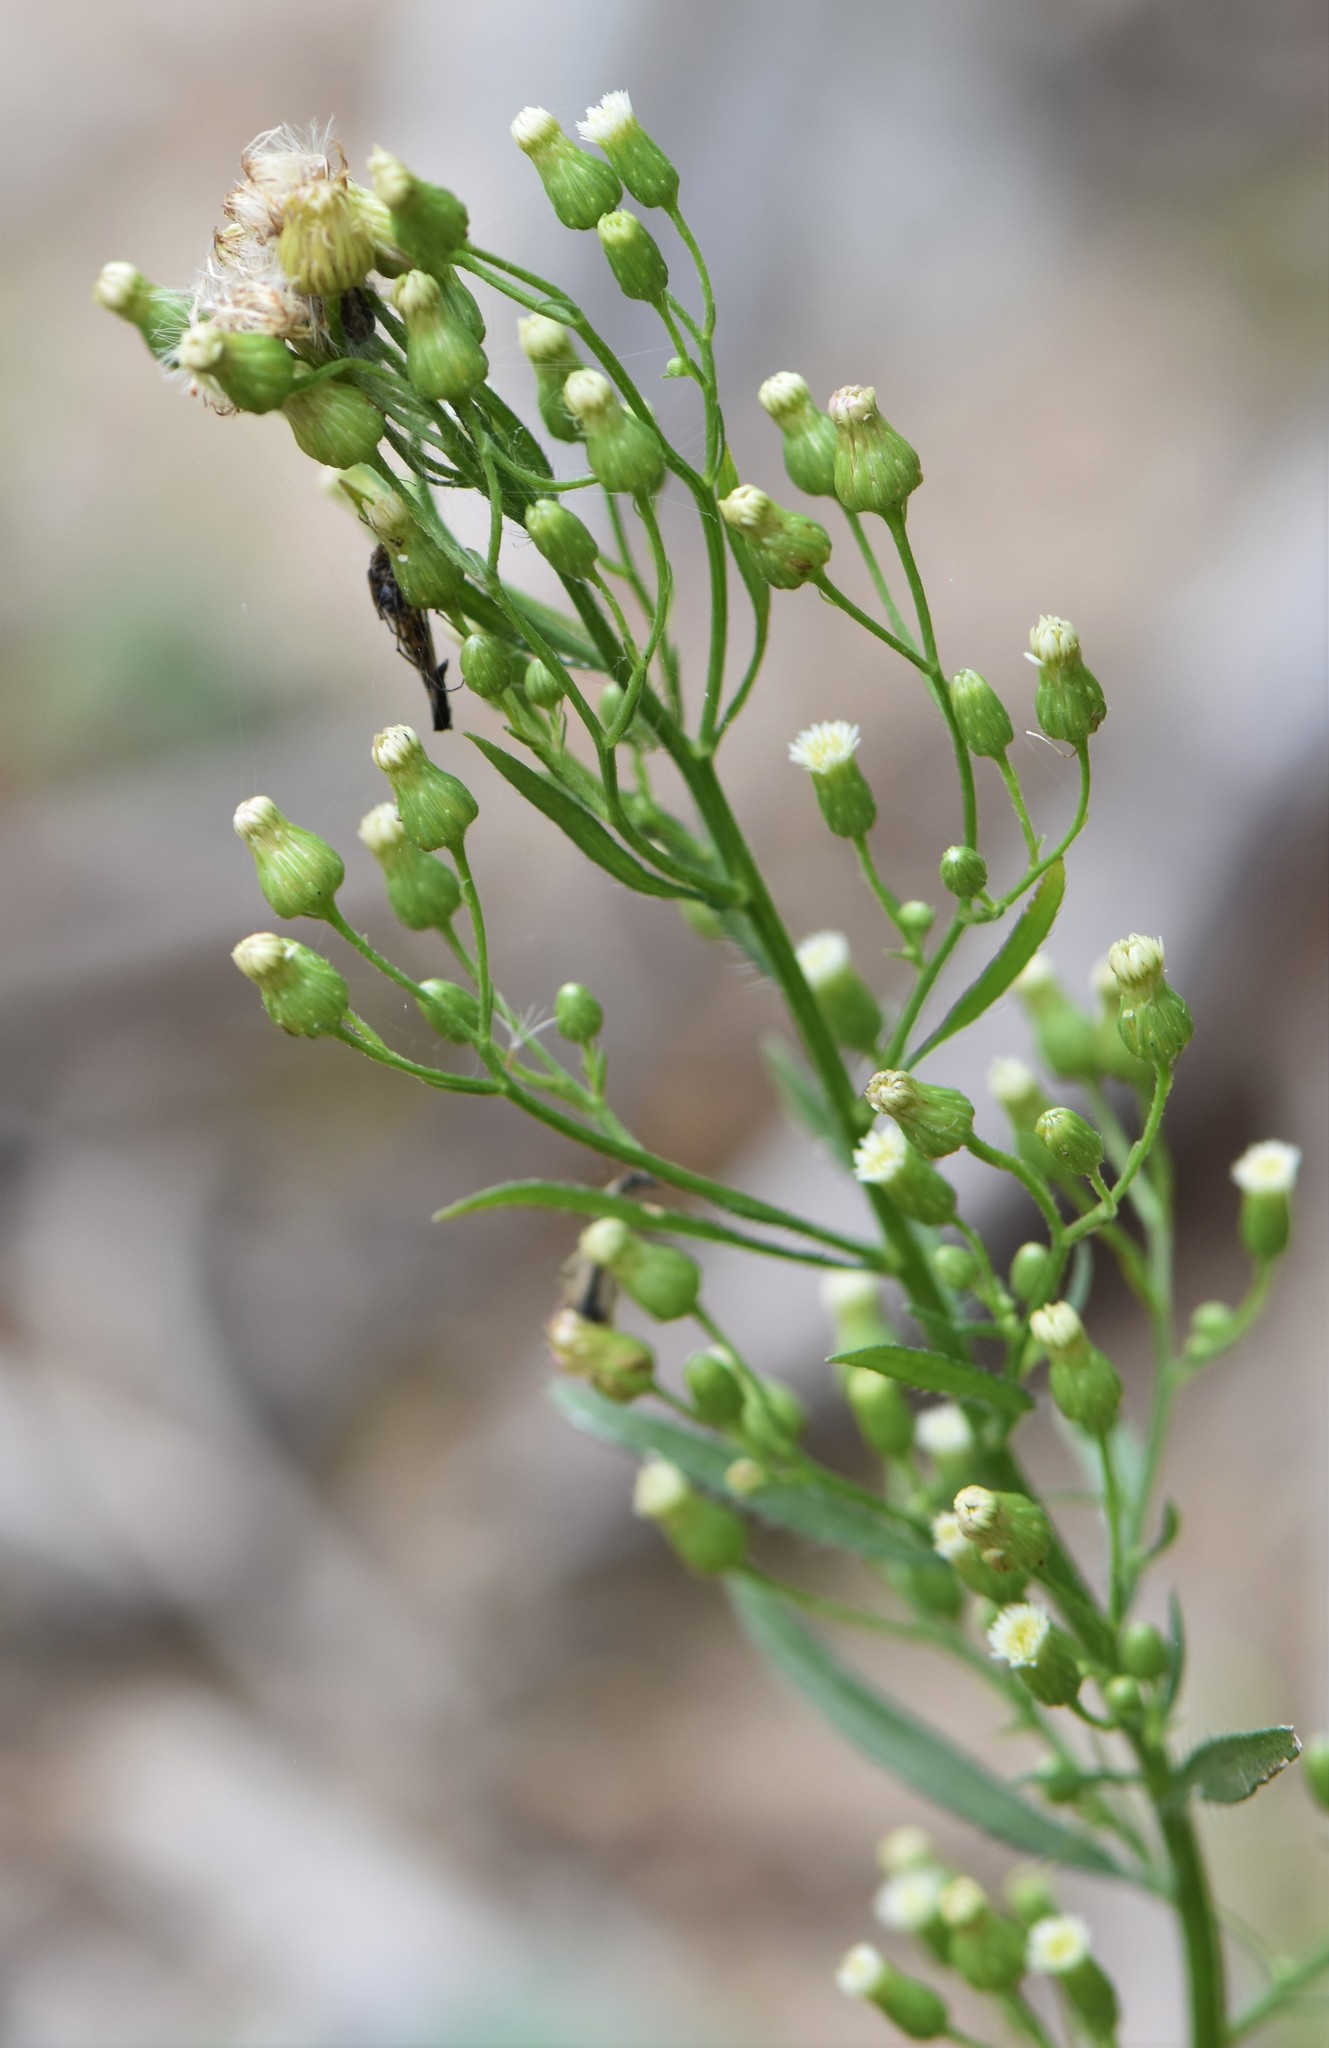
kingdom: Plantae
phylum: Tracheophyta
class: Magnoliopsida
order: Asterales
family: Asteraceae
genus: Erigeron
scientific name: Erigeron canadensis
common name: Canadian fleabane
